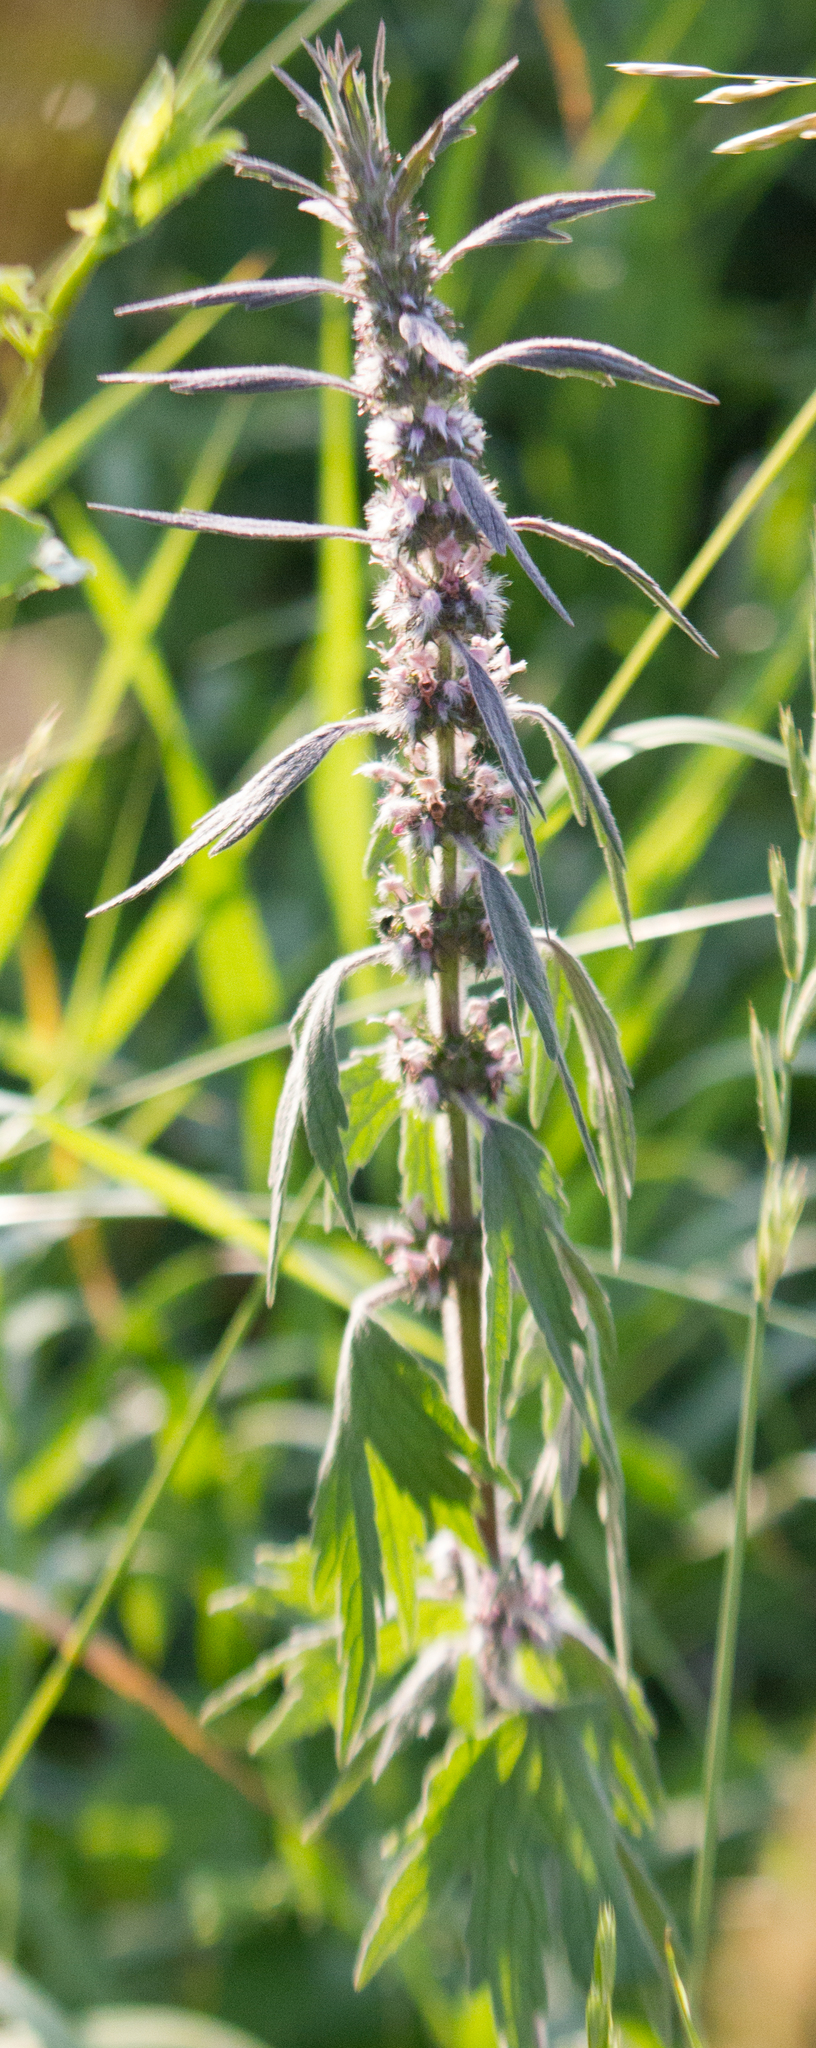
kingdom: Plantae
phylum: Tracheophyta
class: Magnoliopsida
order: Lamiales
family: Lamiaceae
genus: Leonurus
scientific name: Leonurus quinquelobatus
